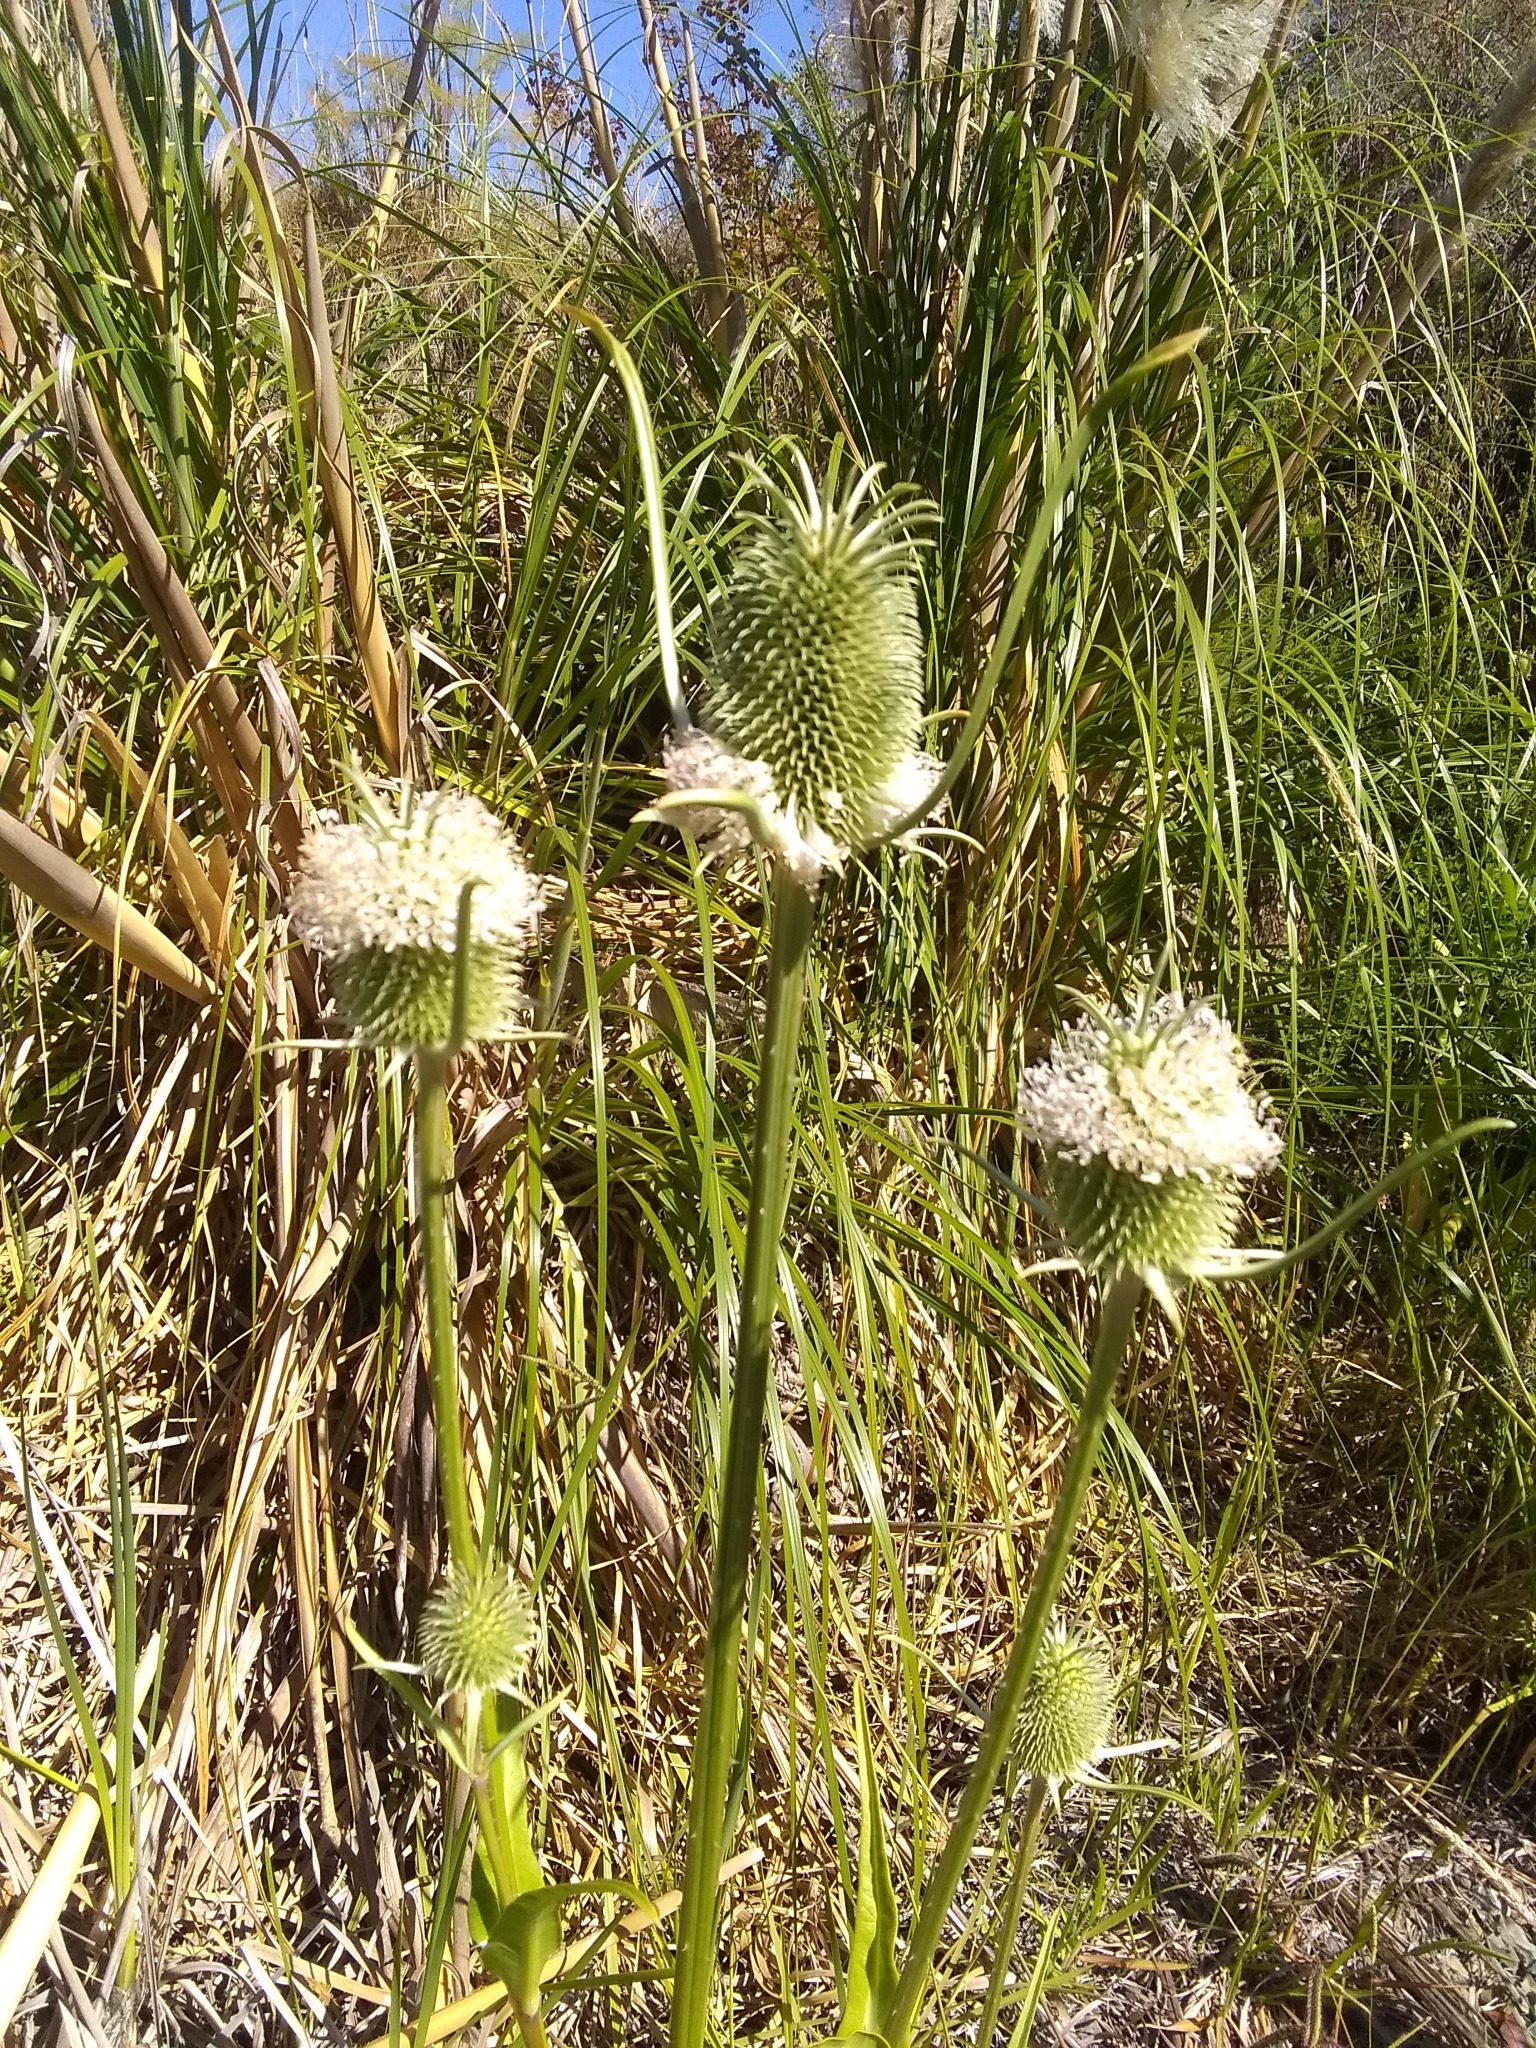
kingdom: Plantae
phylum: Tracheophyta
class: Magnoliopsida
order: Dipsacales
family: Caprifoliaceae
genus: Dipsacus
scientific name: Dipsacus sativus
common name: Fuller's teasel
